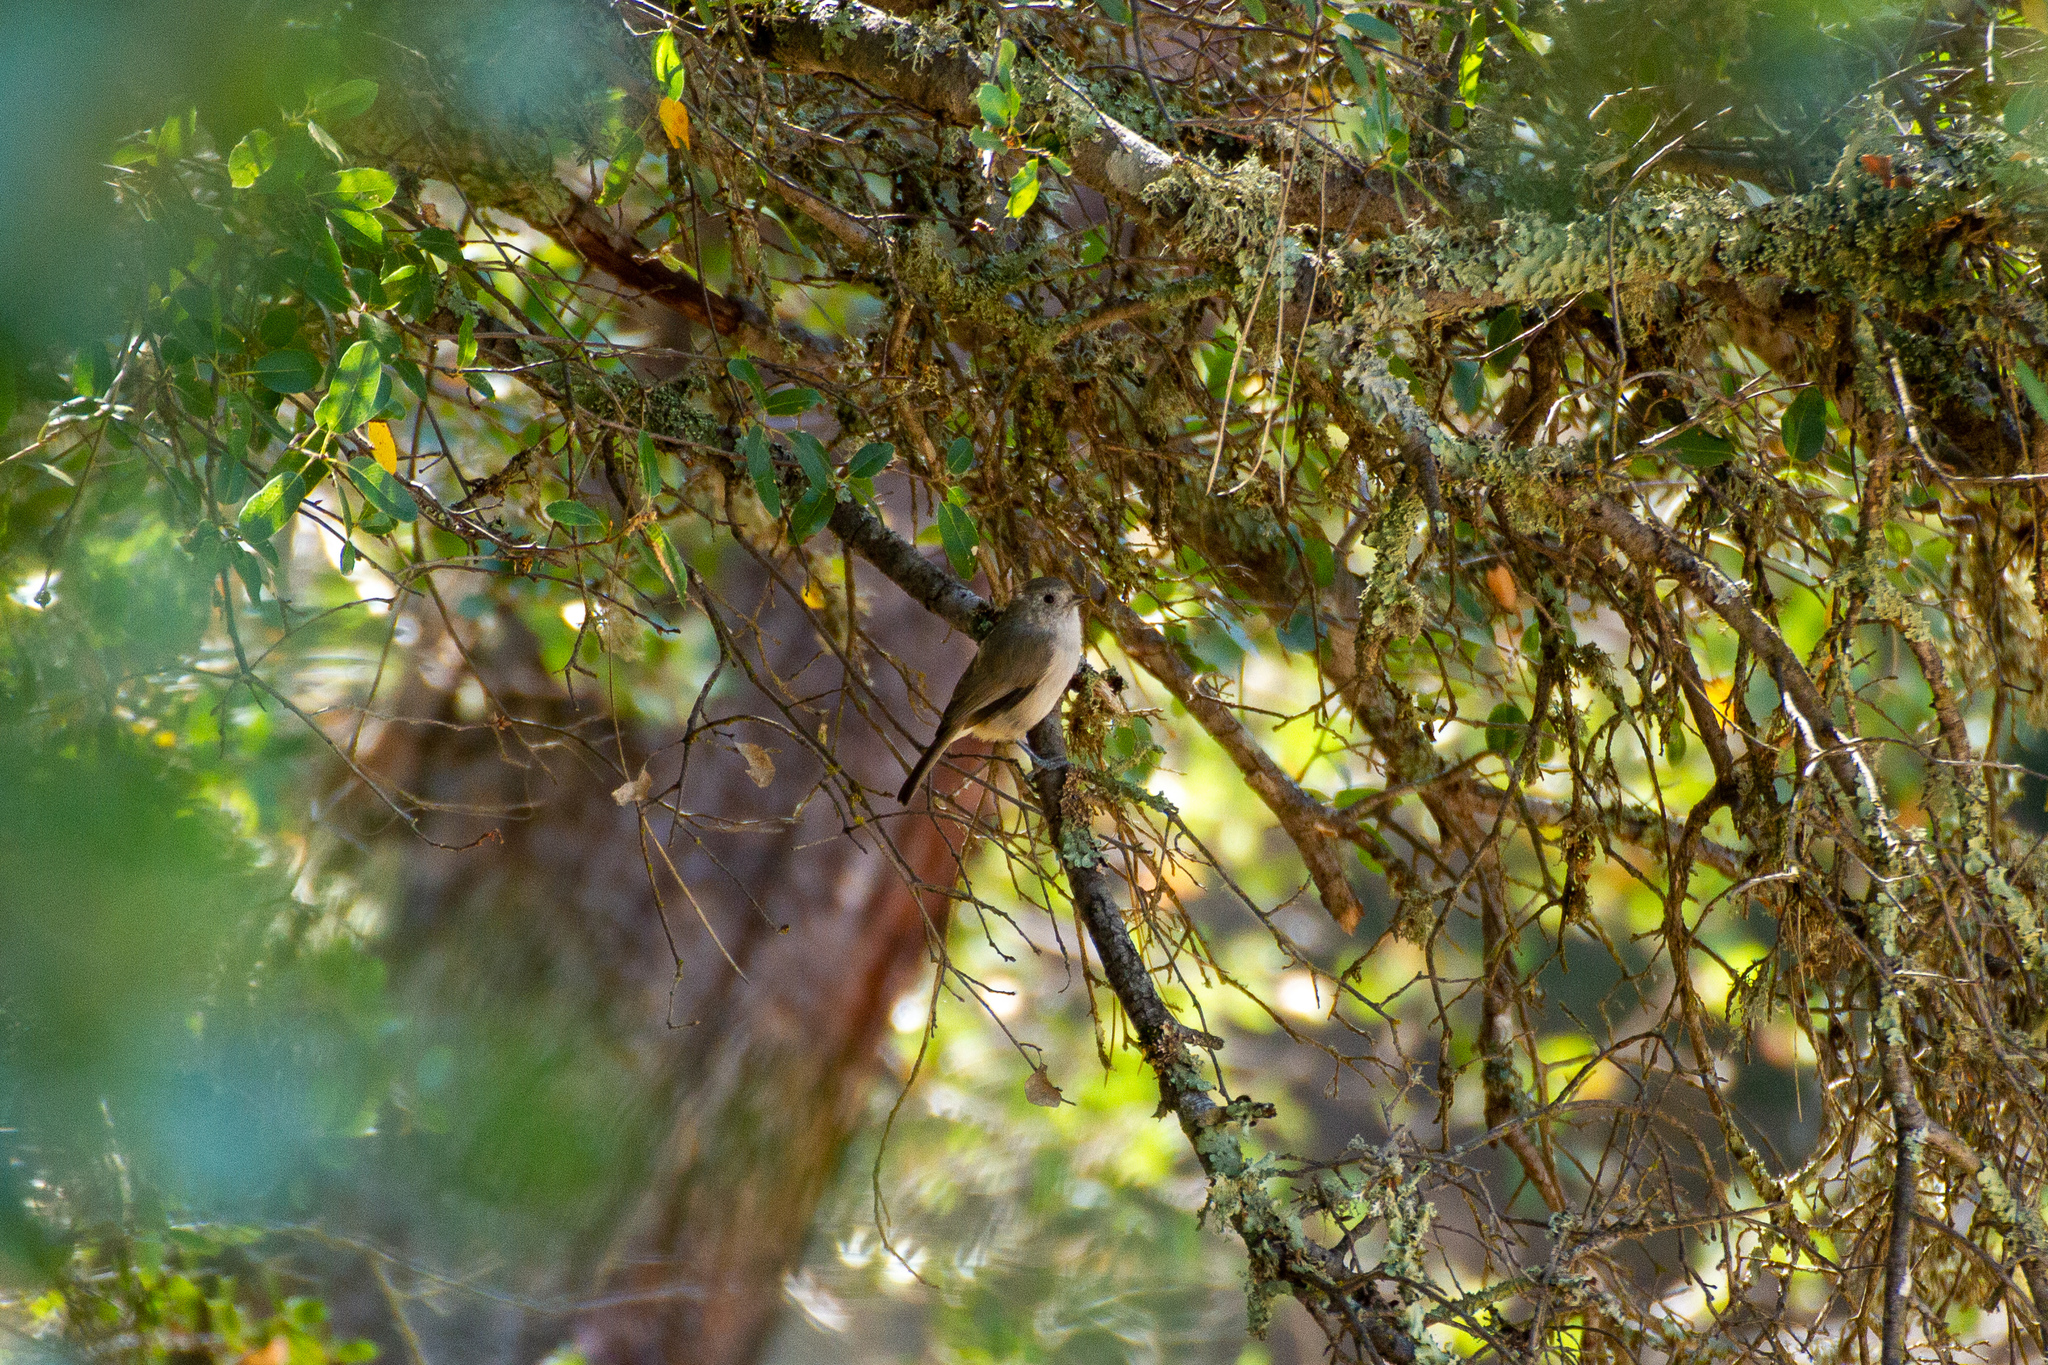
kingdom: Animalia
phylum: Chordata
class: Aves
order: Passeriformes
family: Paridae
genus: Baeolophus
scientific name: Baeolophus inornatus
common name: Oak titmouse
